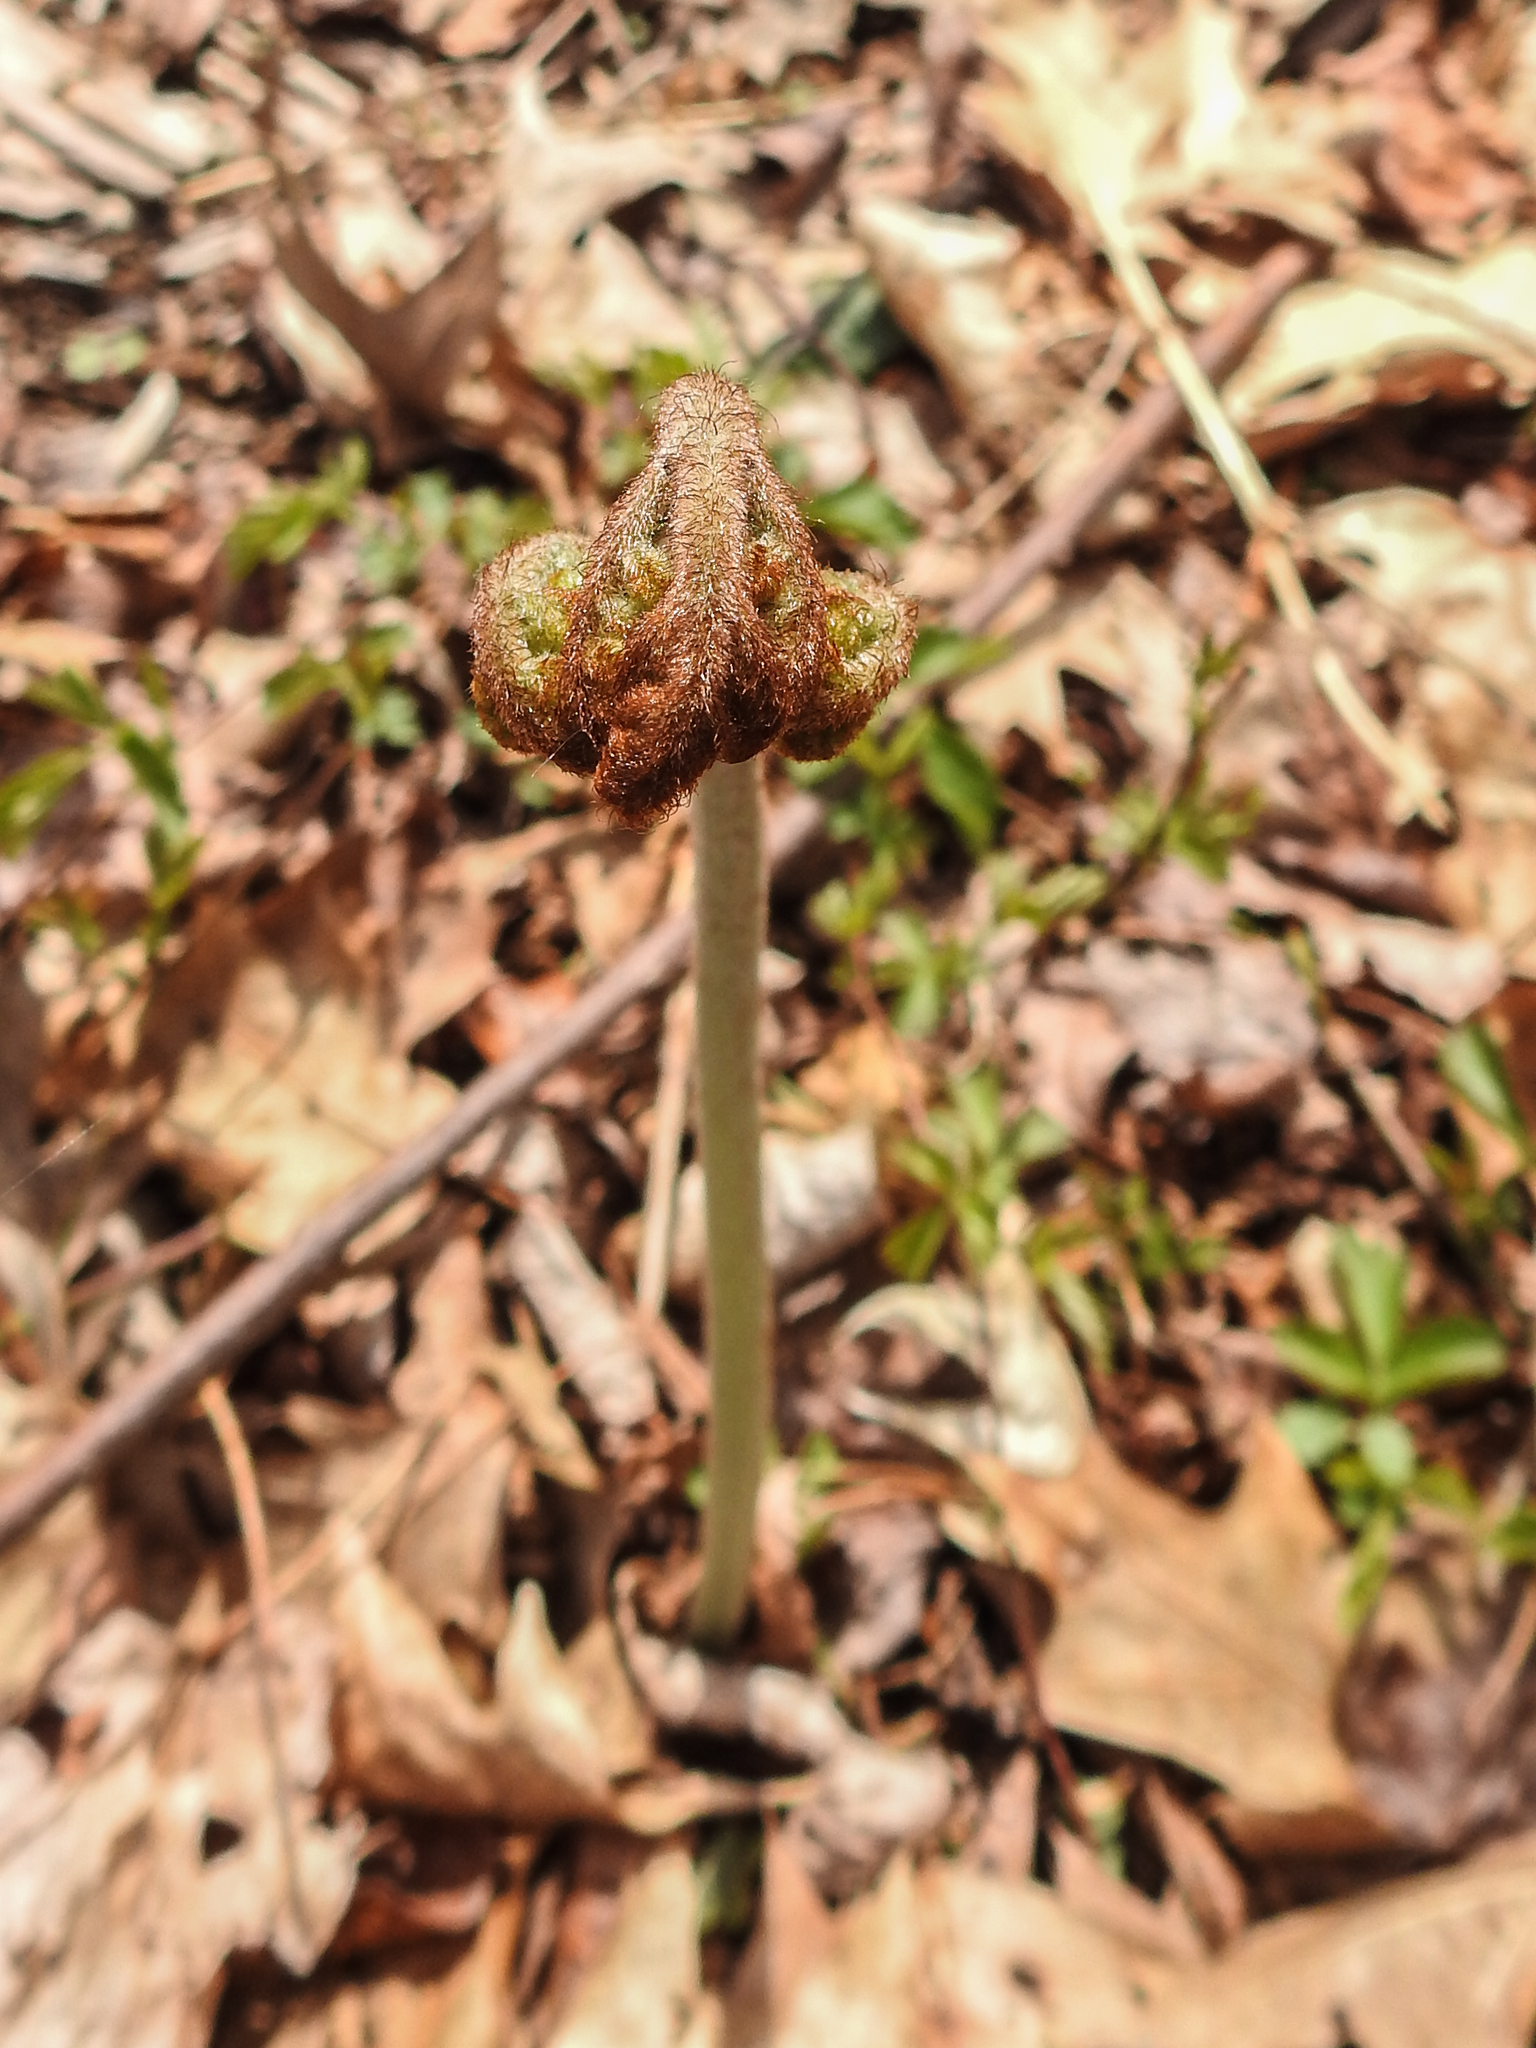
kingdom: Plantae
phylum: Tracheophyta
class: Polypodiopsida
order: Polypodiales
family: Dennstaedtiaceae
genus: Pteridium
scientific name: Pteridium aquilinum
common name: Bracken
